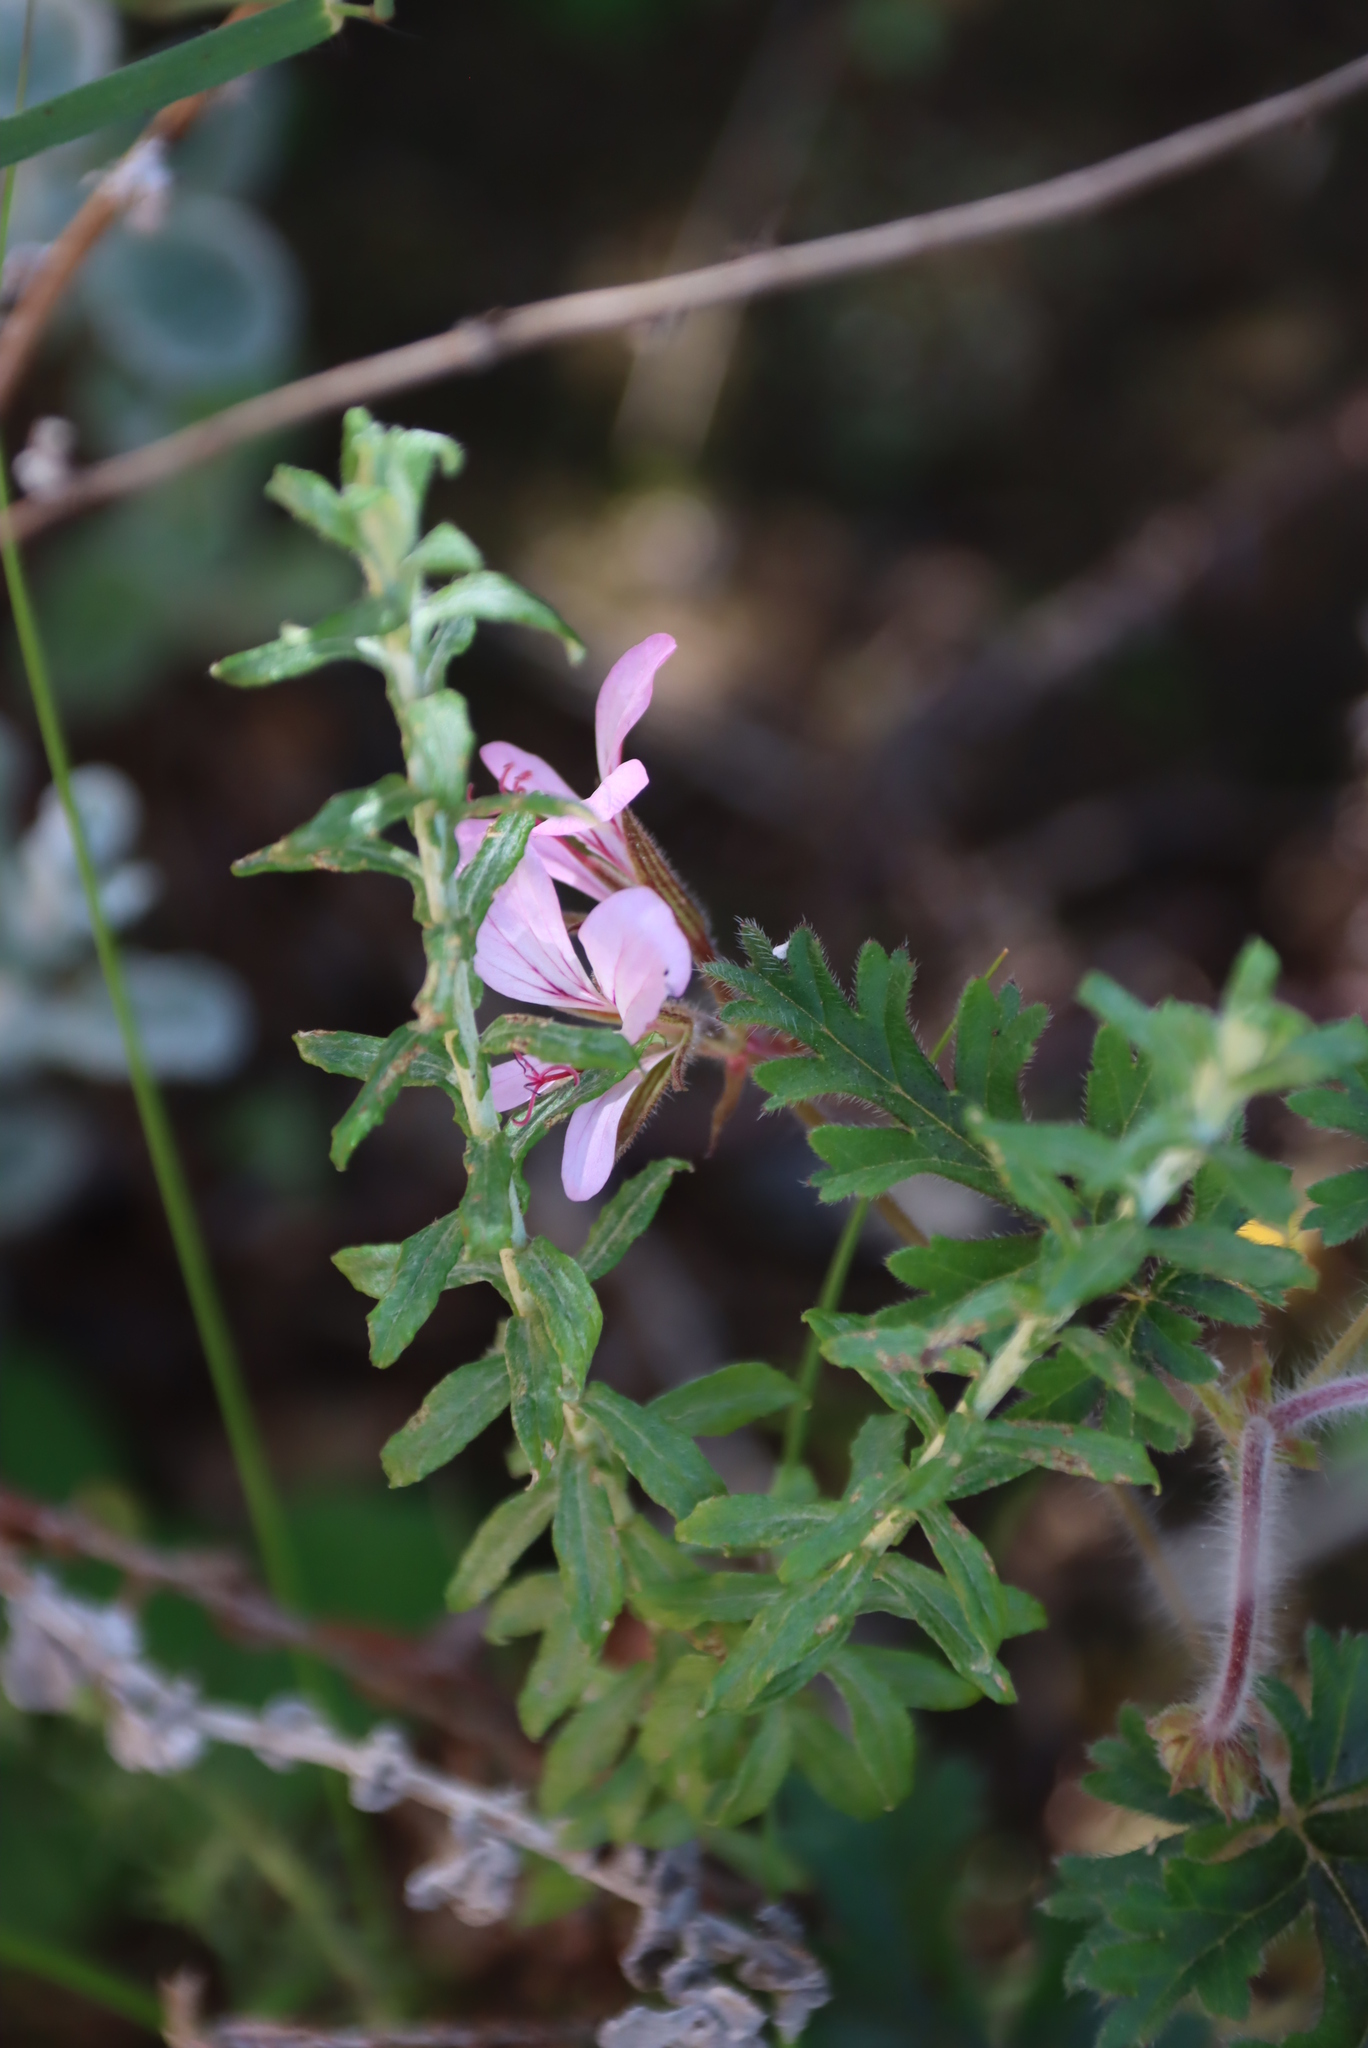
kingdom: Plantae
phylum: Tracheophyta
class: Magnoliopsida
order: Geraniales
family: Geraniaceae
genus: Pelargonium
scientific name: Pelargonium myrrhifolium
